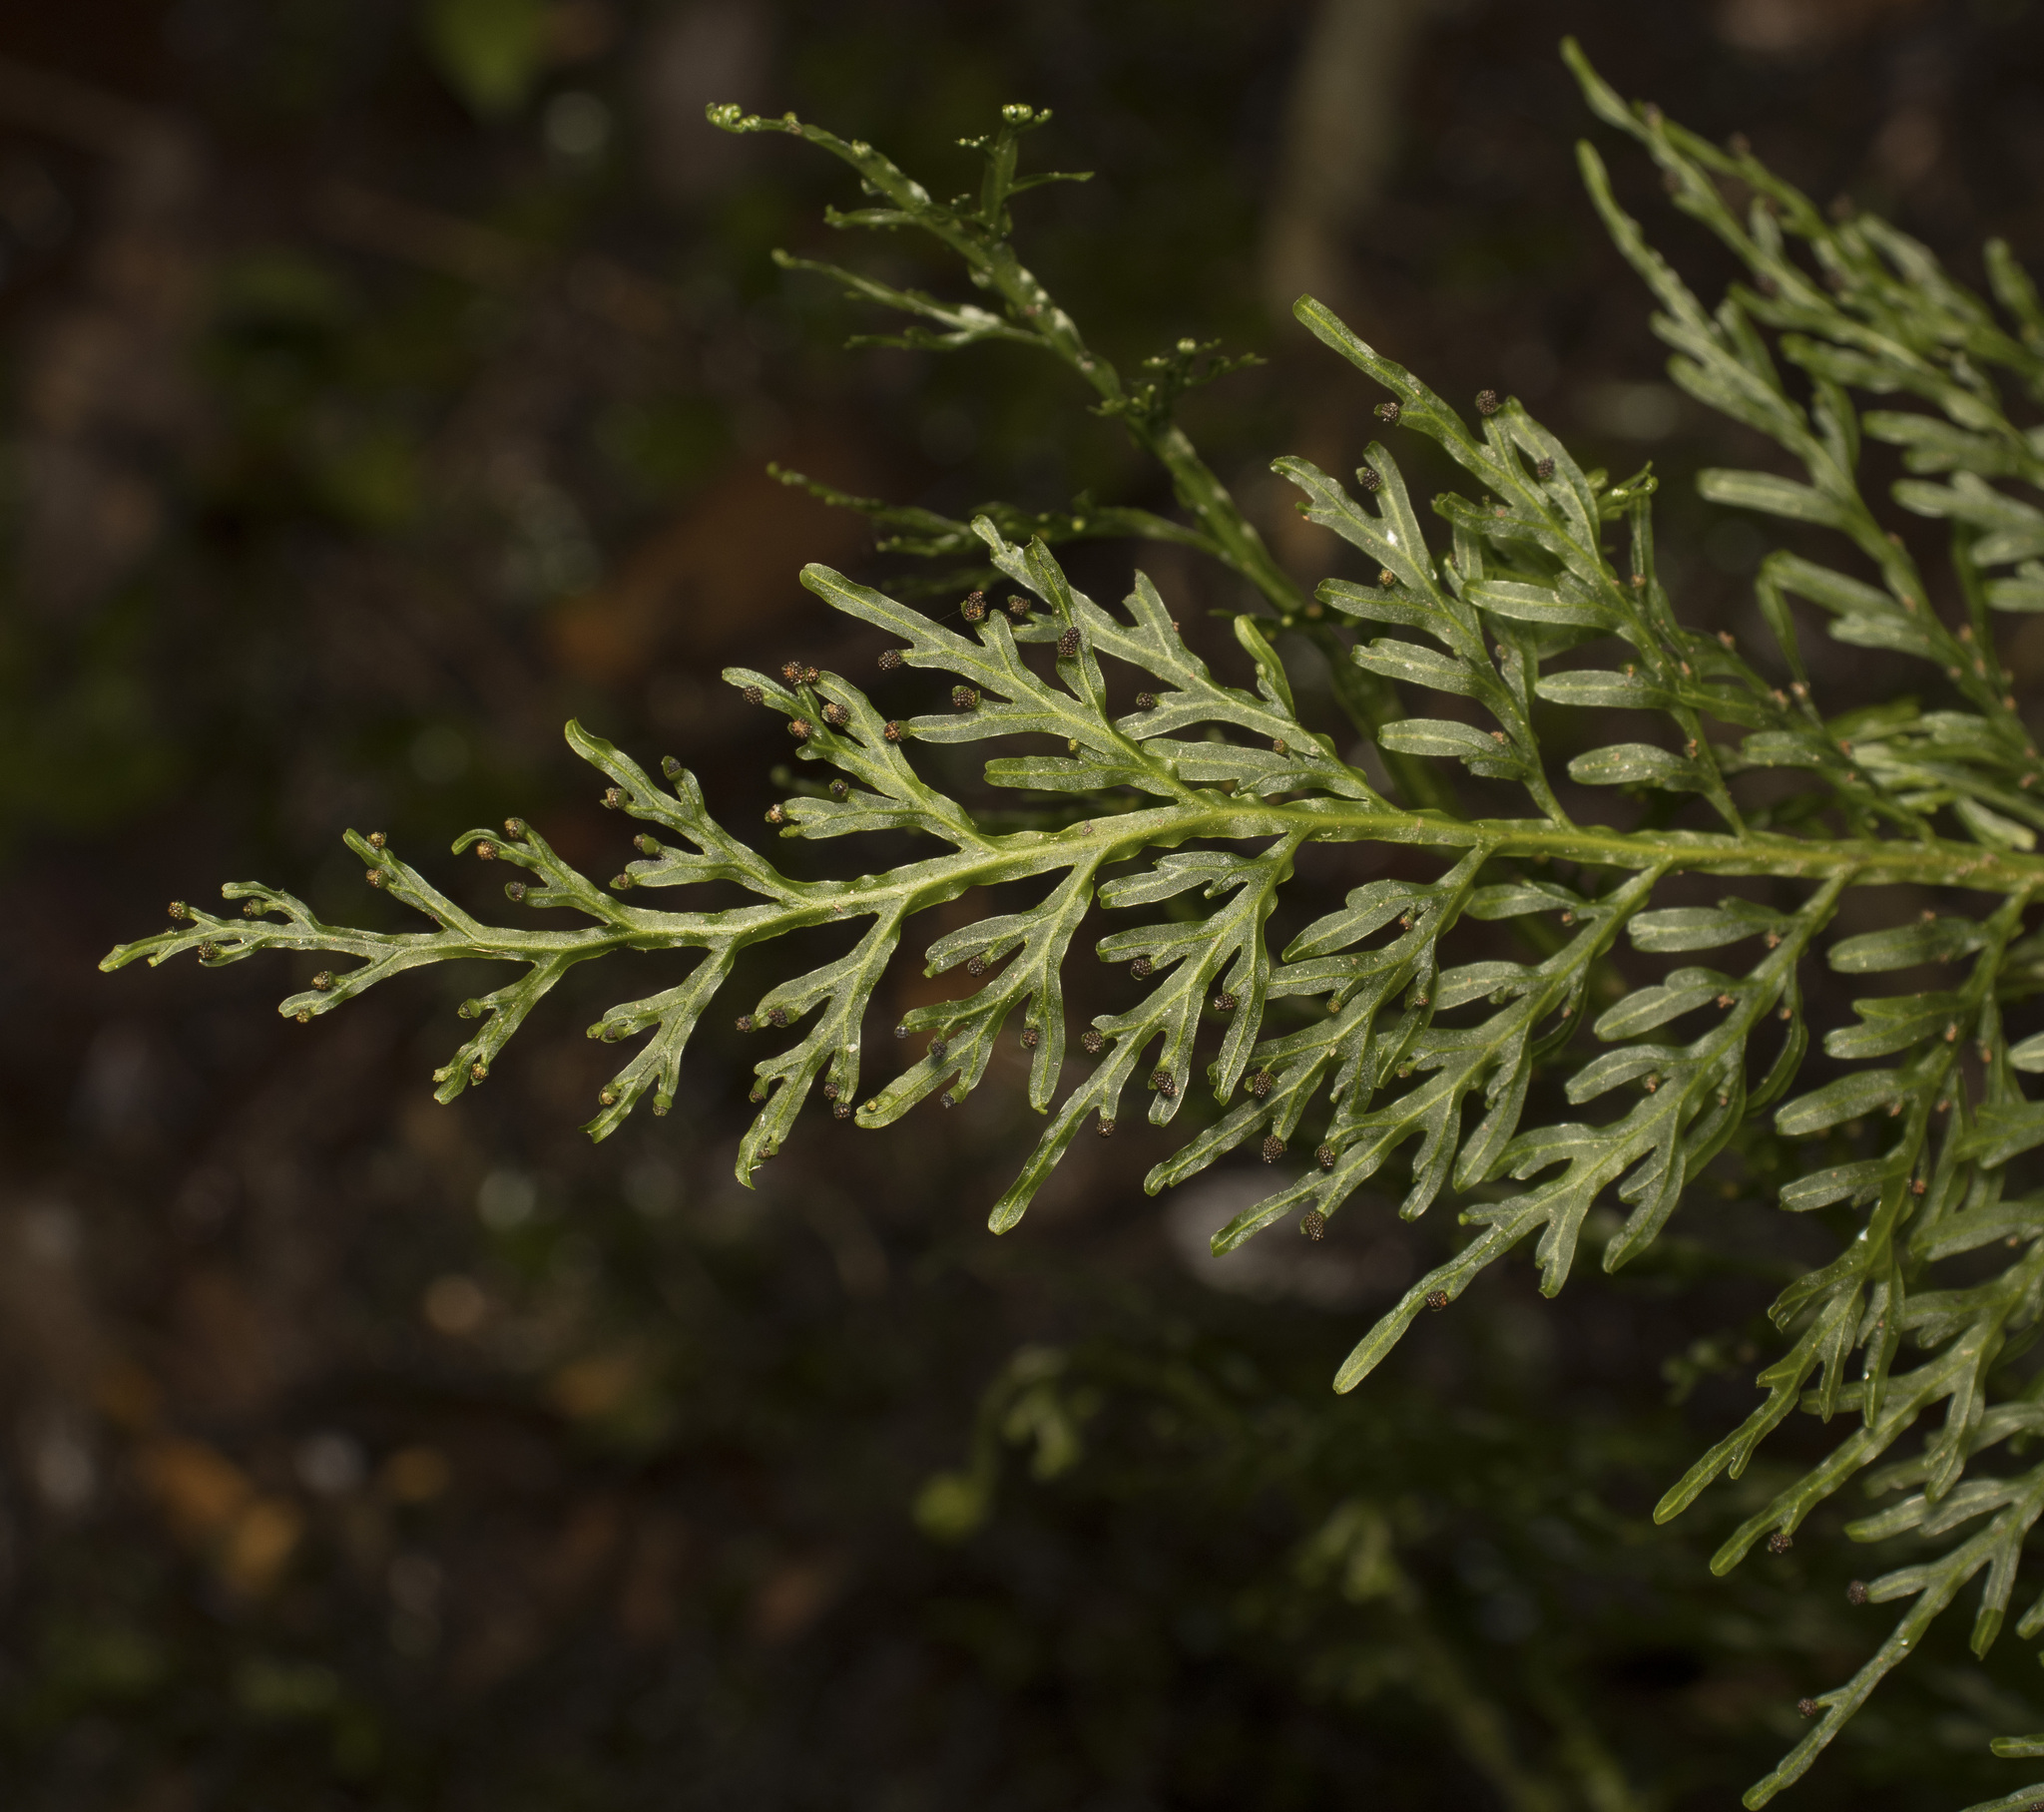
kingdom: Plantae
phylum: Tracheophyta
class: Polypodiopsida
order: Hymenophyllales
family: Hymenophyllaceae
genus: Hymenophyllum
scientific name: Hymenophyllum fuciforme
